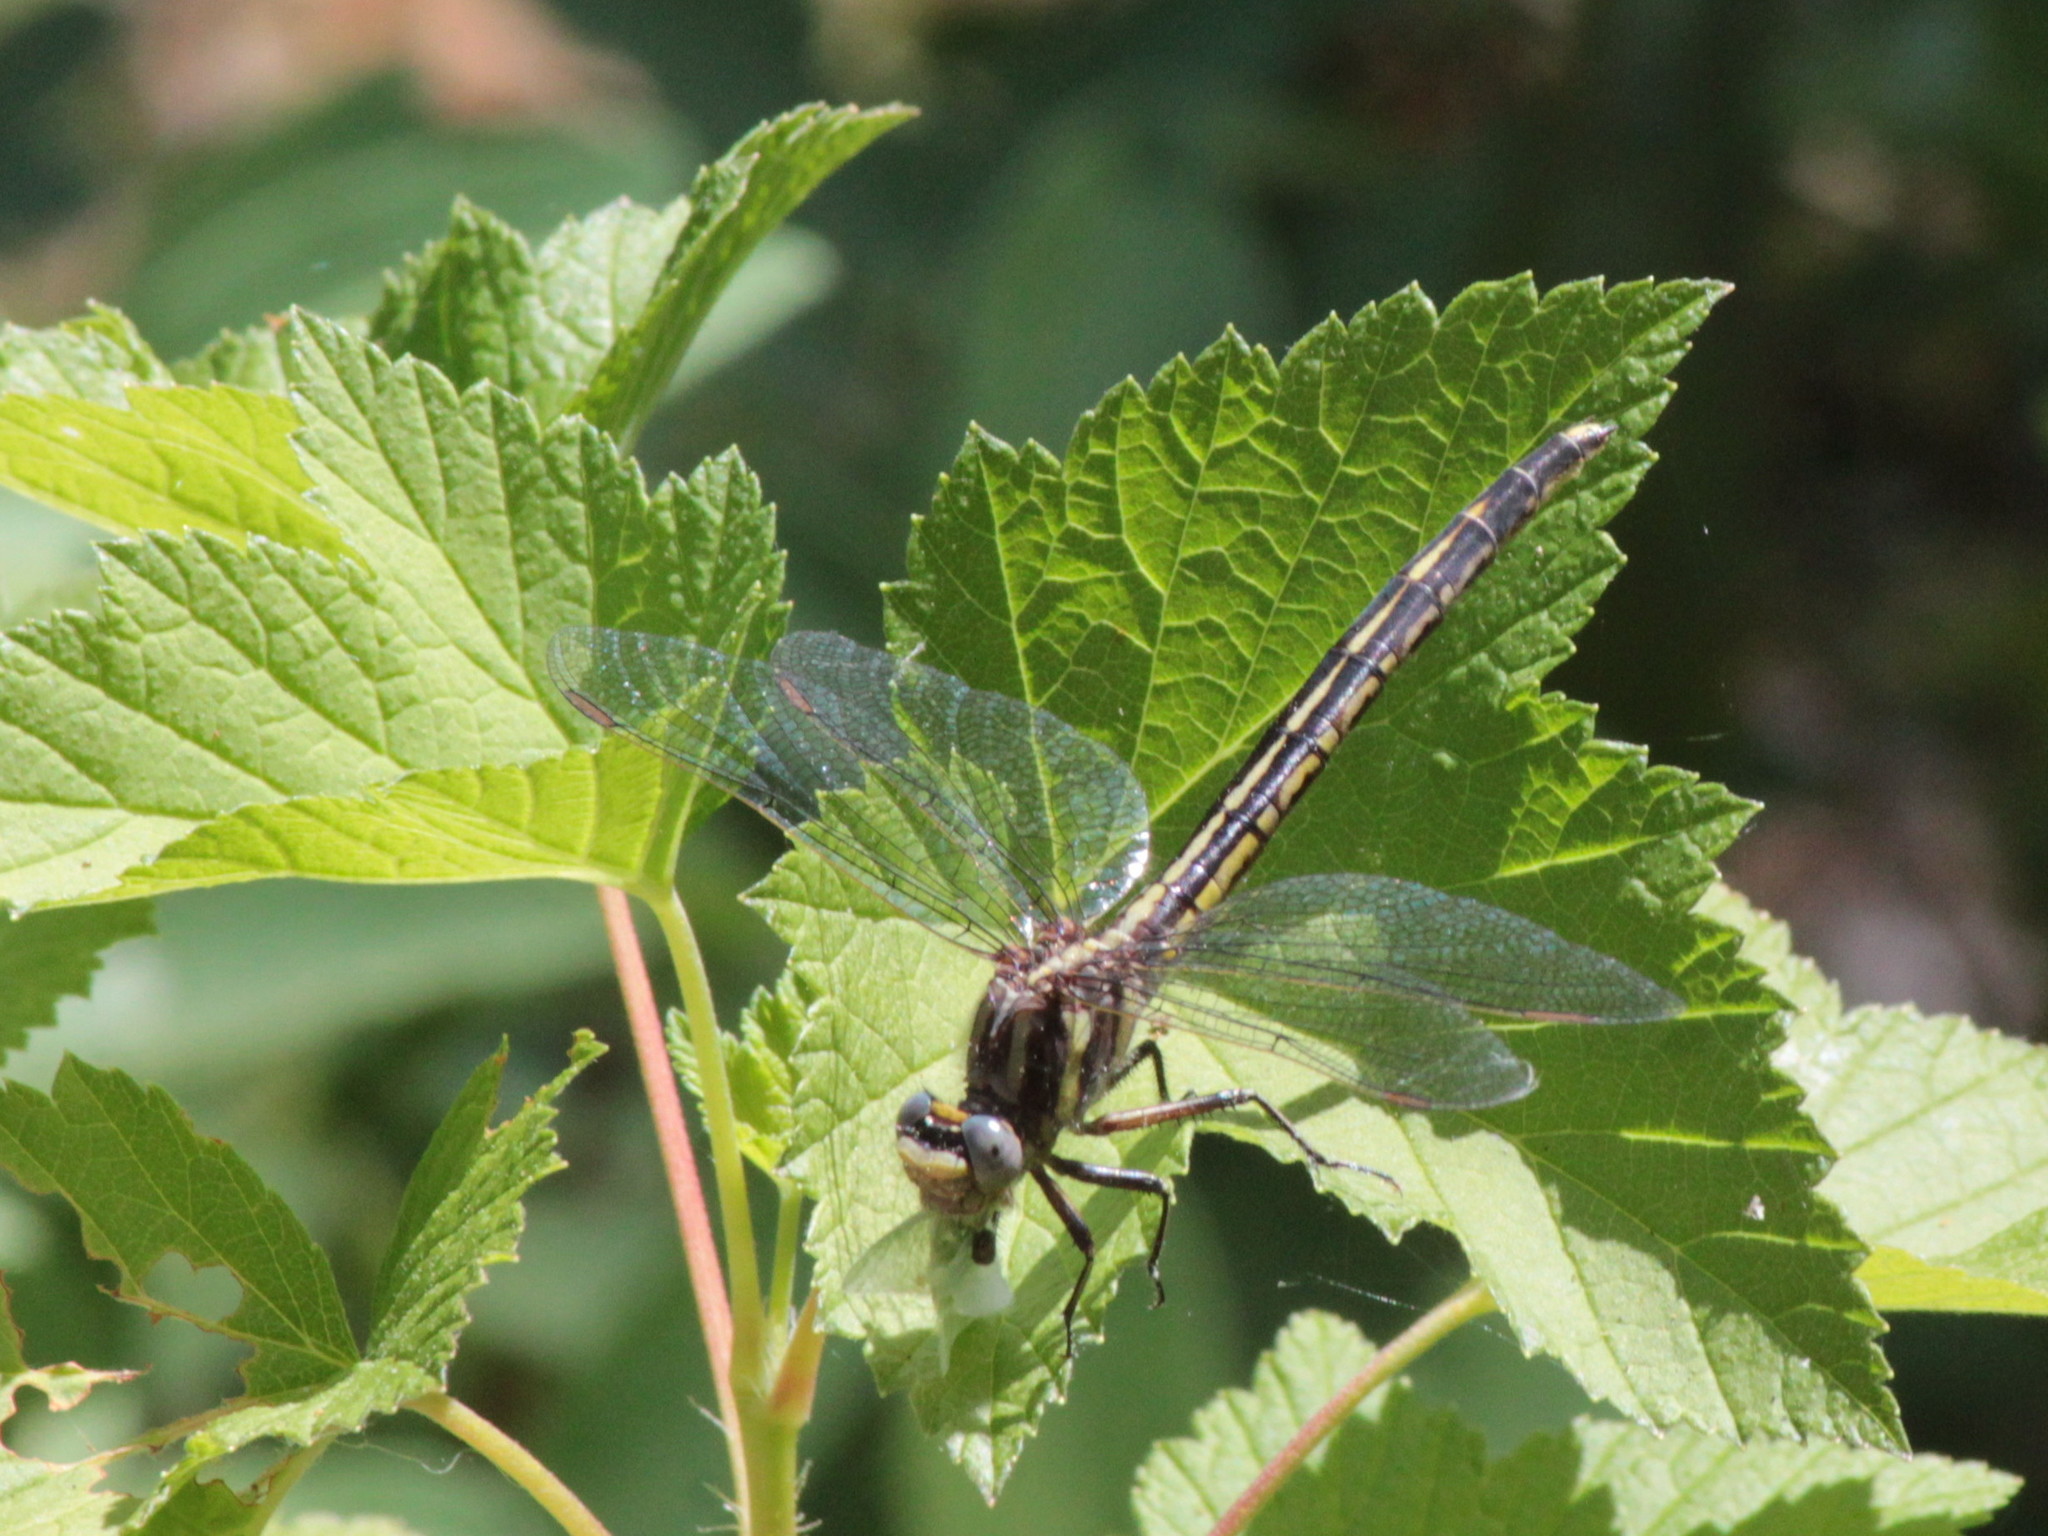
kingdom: Animalia
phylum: Arthropoda
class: Insecta
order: Odonata
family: Gomphidae
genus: Phanogomphus
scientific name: Phanogomphus spicatus
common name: Dusky clubtail
